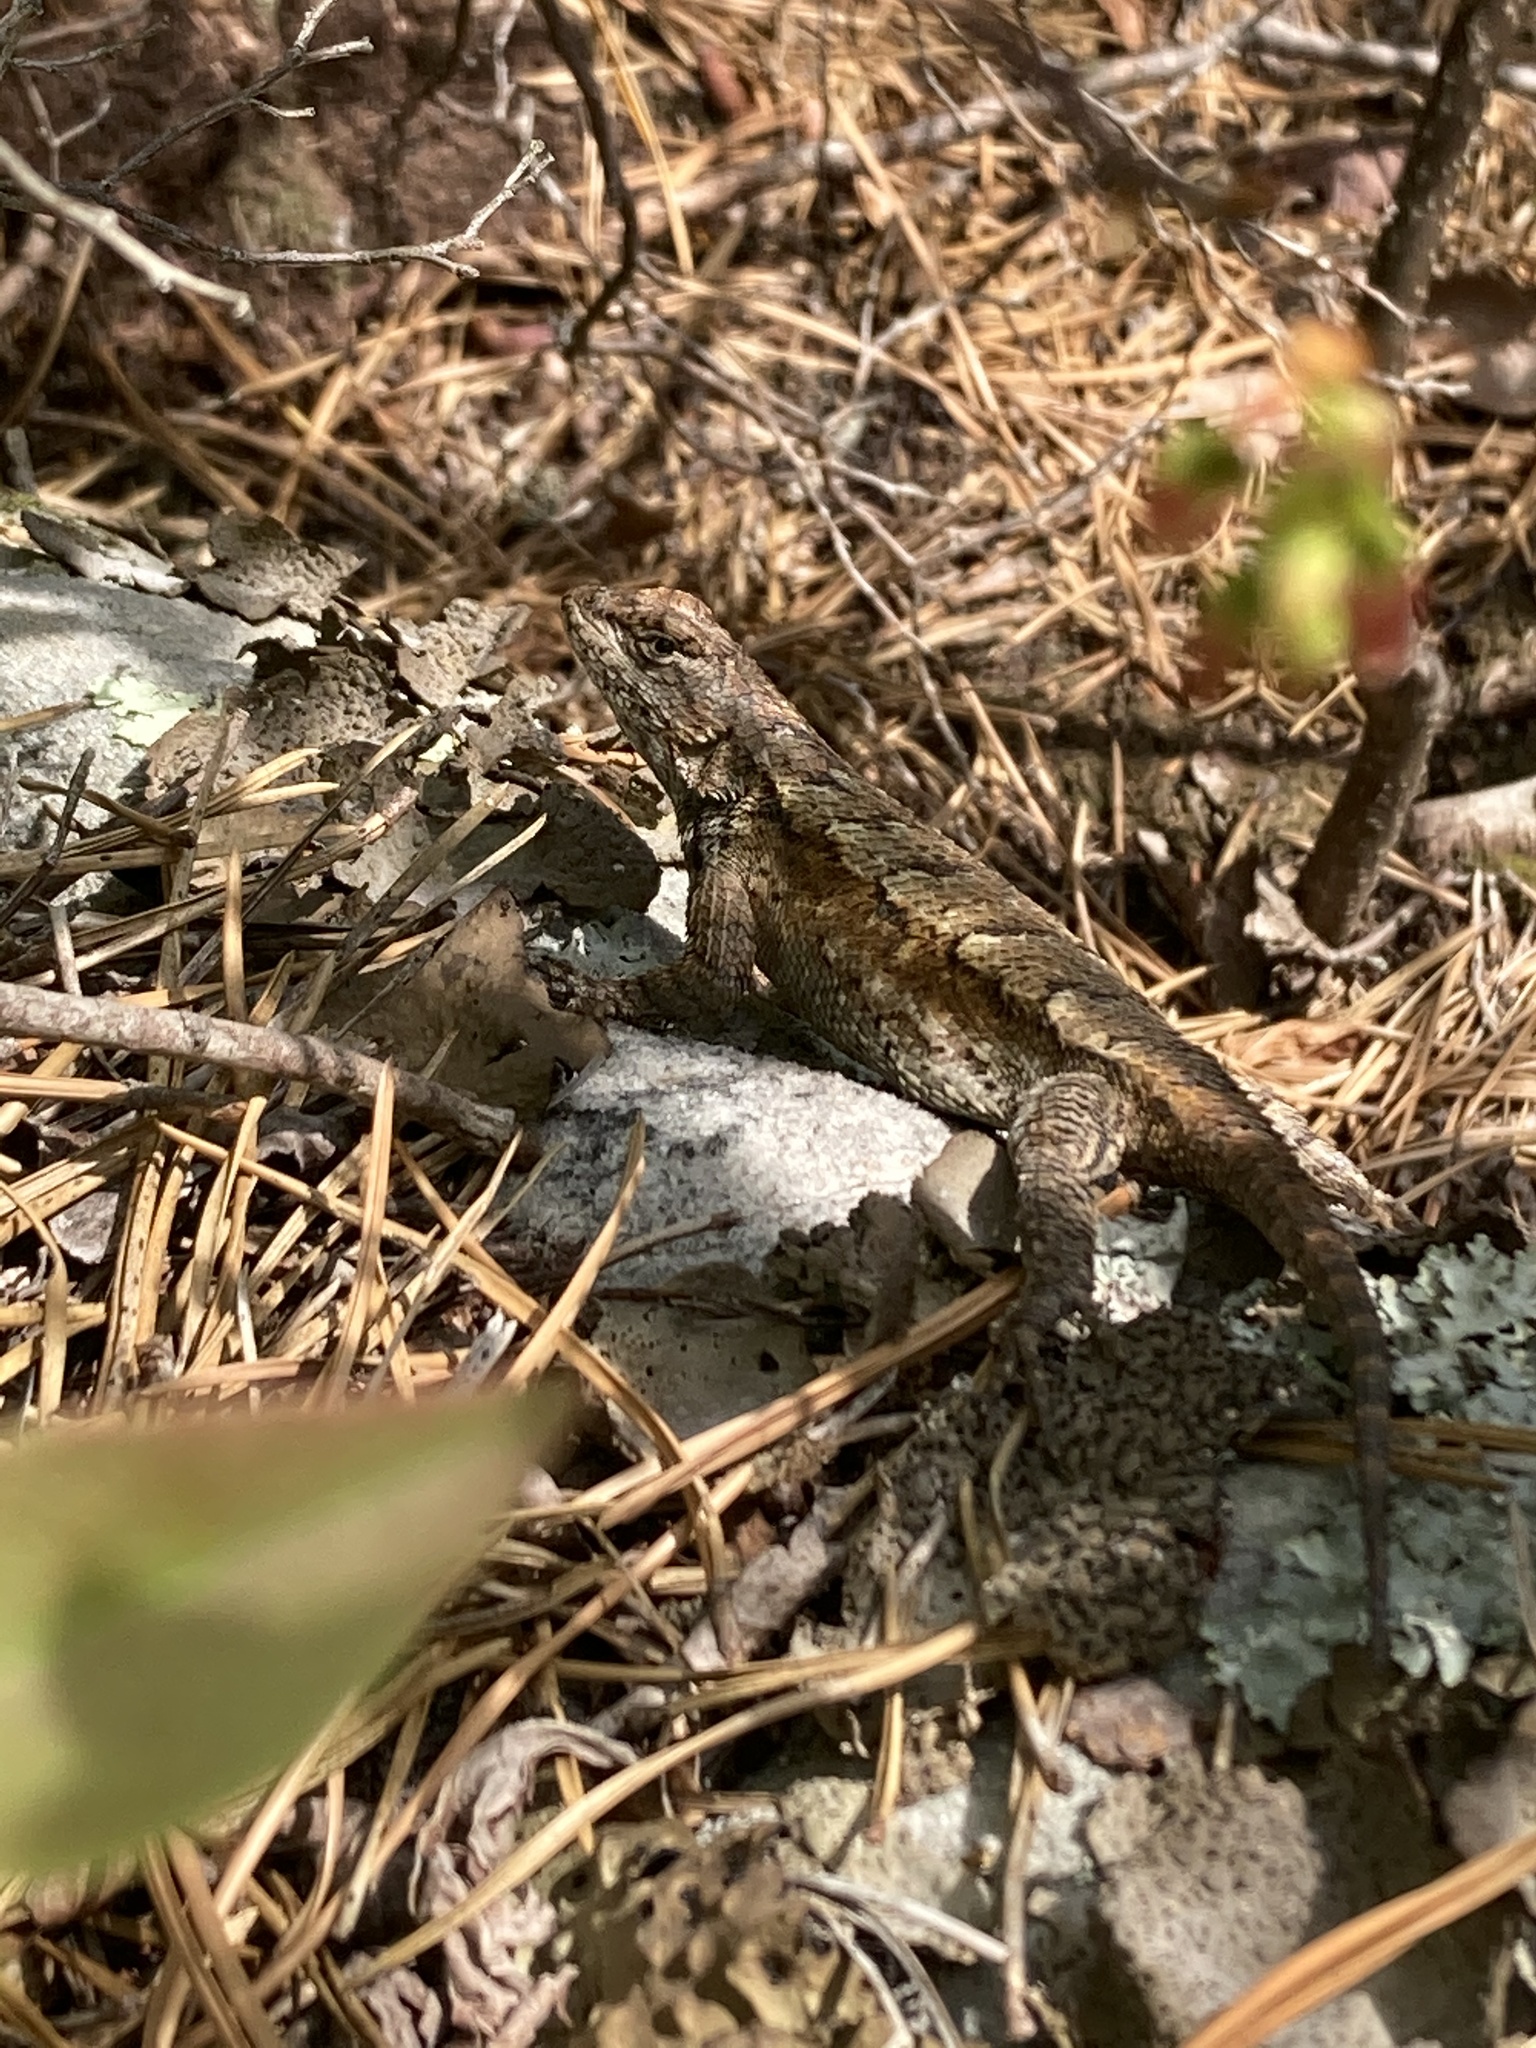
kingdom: Animalia
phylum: Chordata
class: Squamata
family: Phrynosomatidae
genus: Sceloporus
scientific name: Sceloporus undulatus
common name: Eastern fence lizard
